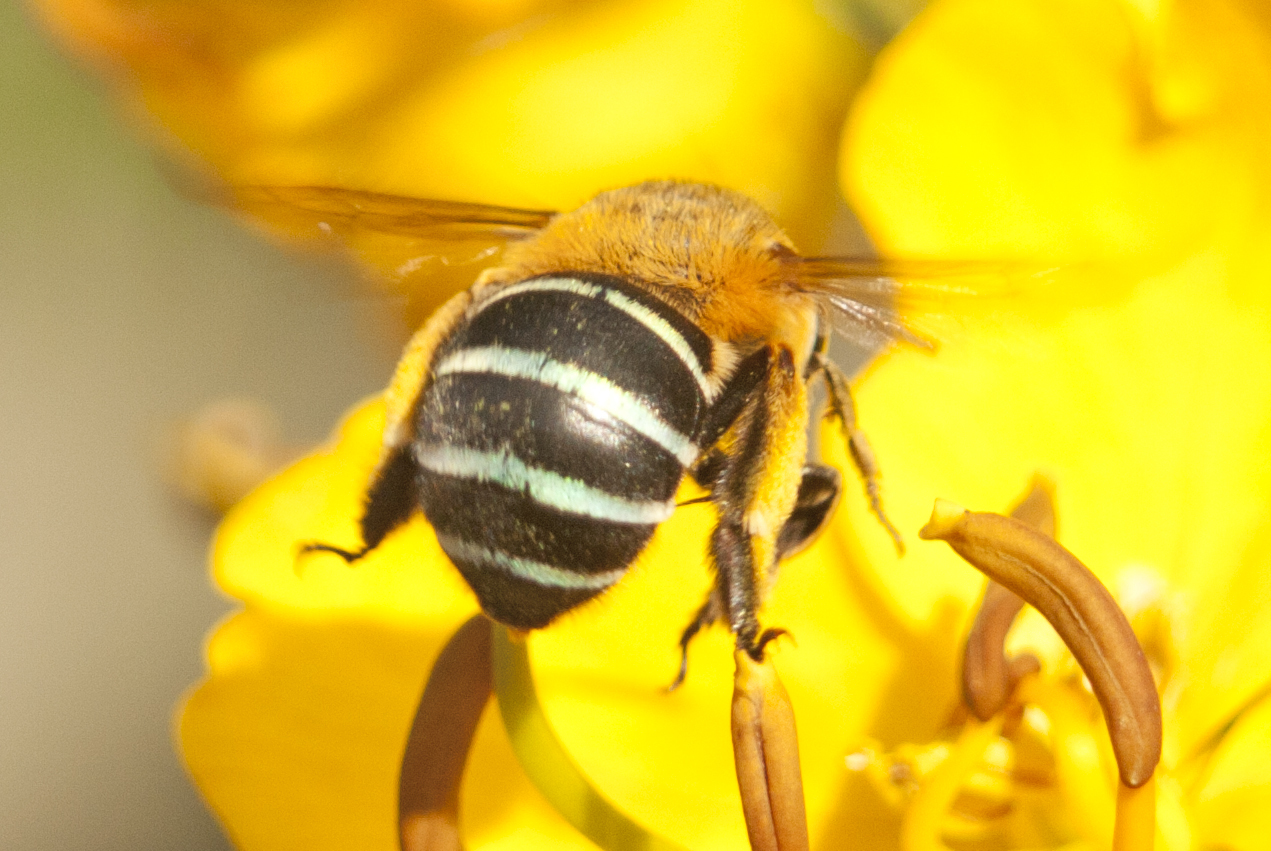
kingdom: Animalia
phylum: Arthropoda
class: Insecta
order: Hymenoptera
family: Apidae
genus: Amegilla
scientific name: Amegilla cingulata
